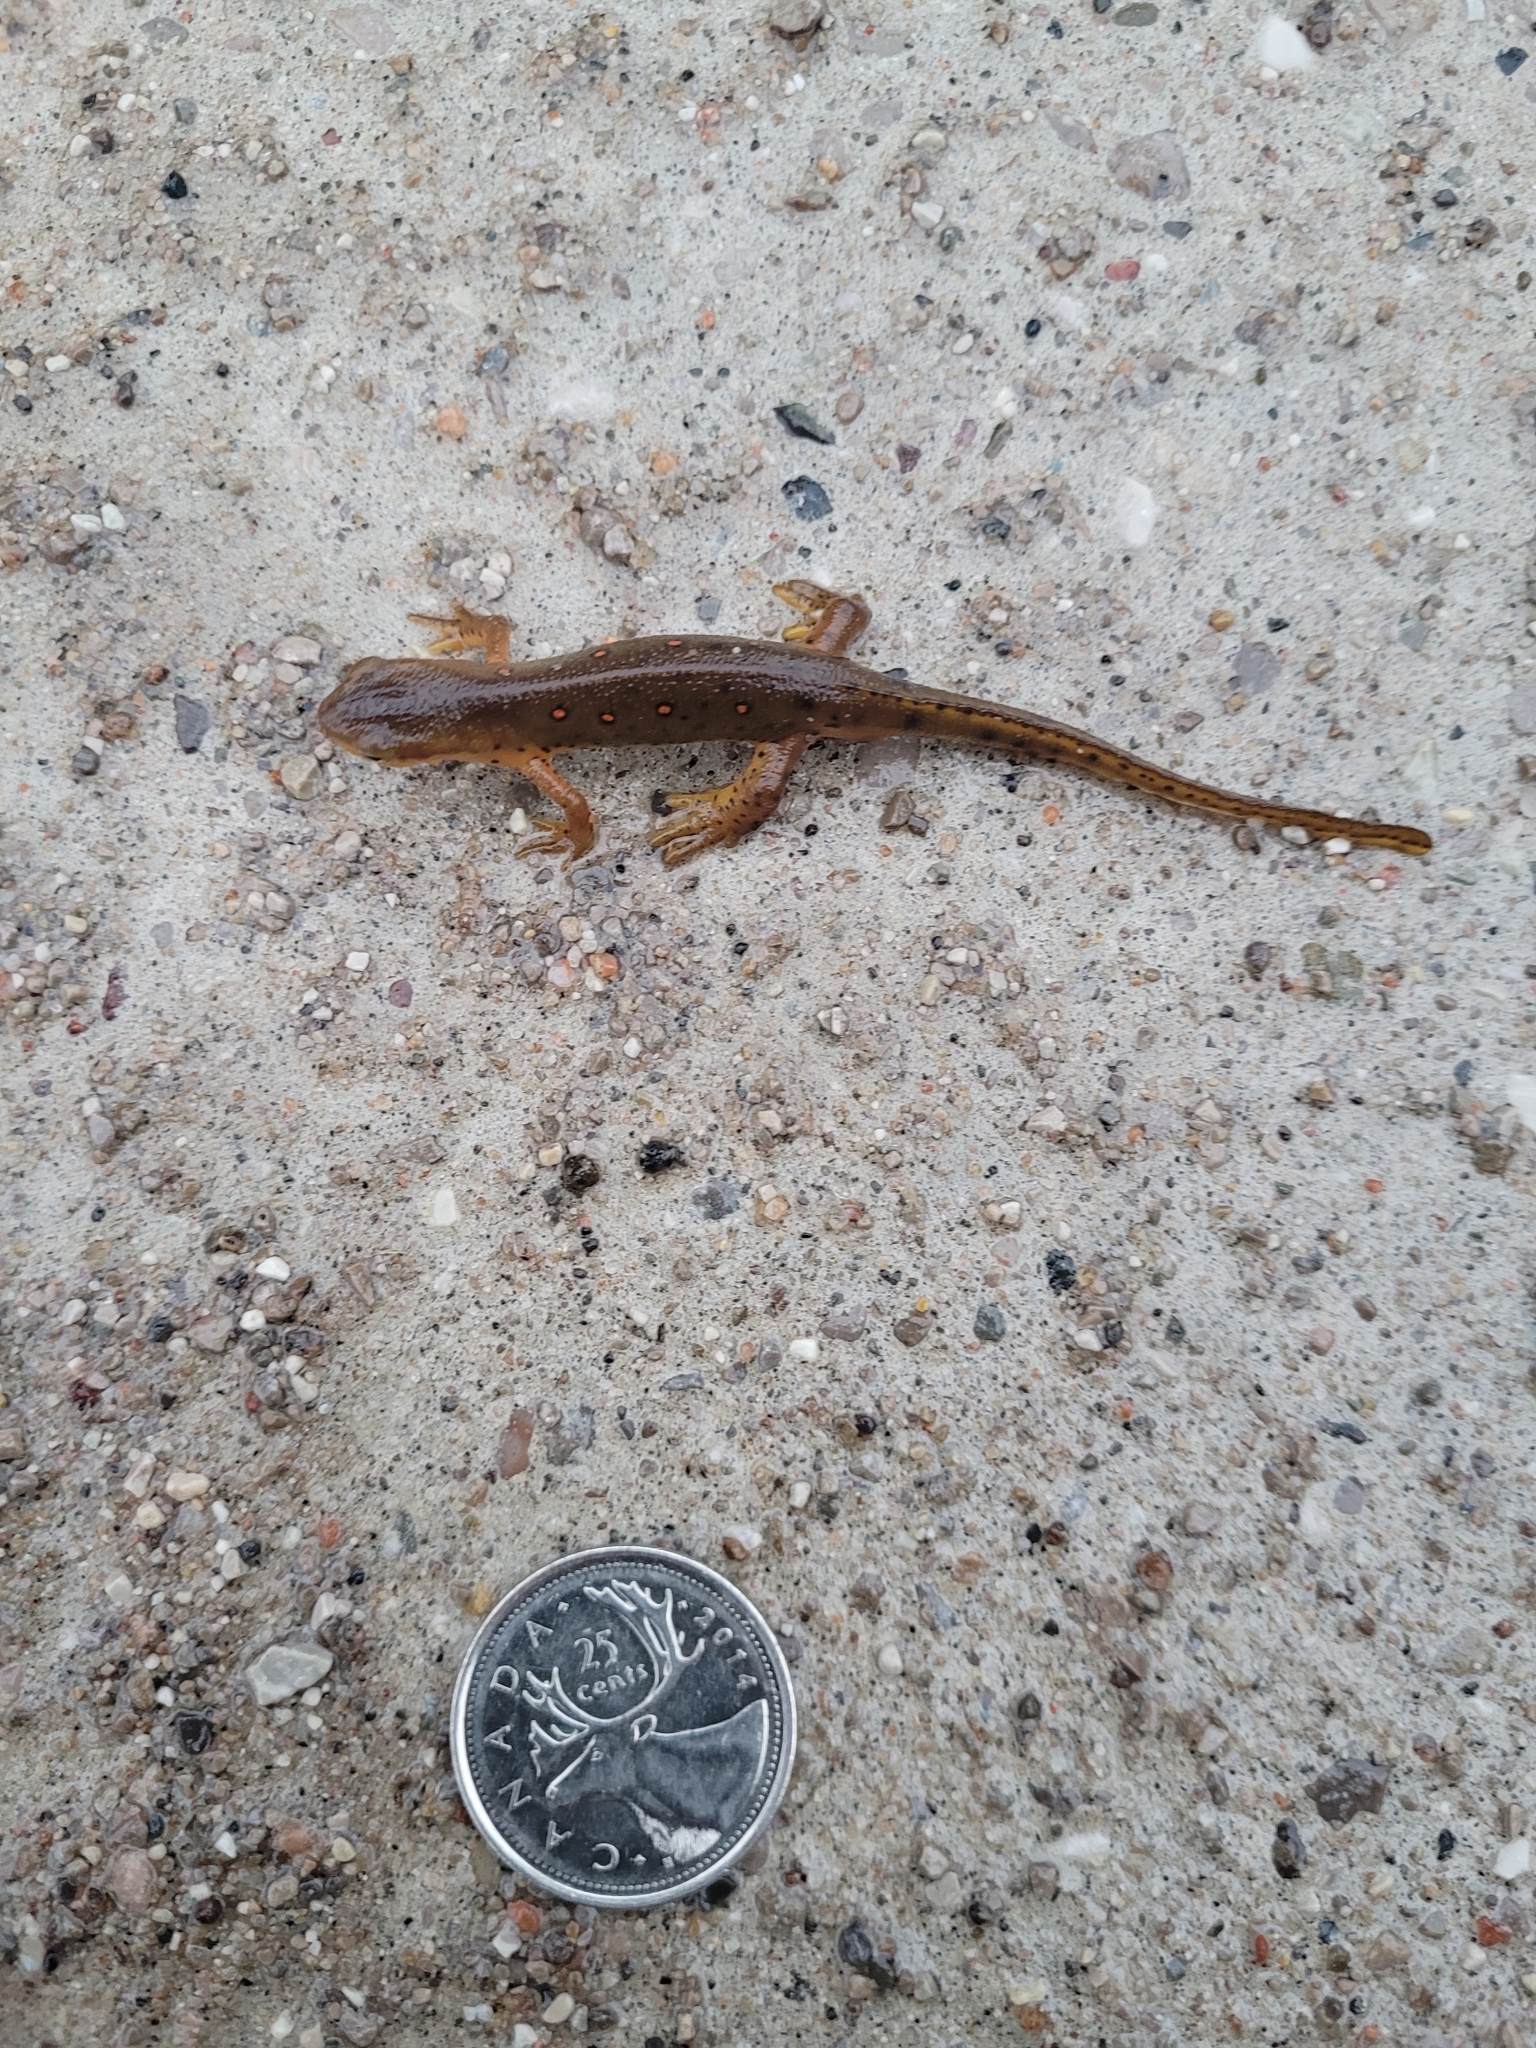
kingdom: Animalia
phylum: Chordata
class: Amphibia
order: Caudata
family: Salamandridae
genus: Notophthalmus
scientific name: Notophthalmus viridescens
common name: Eastern newt
